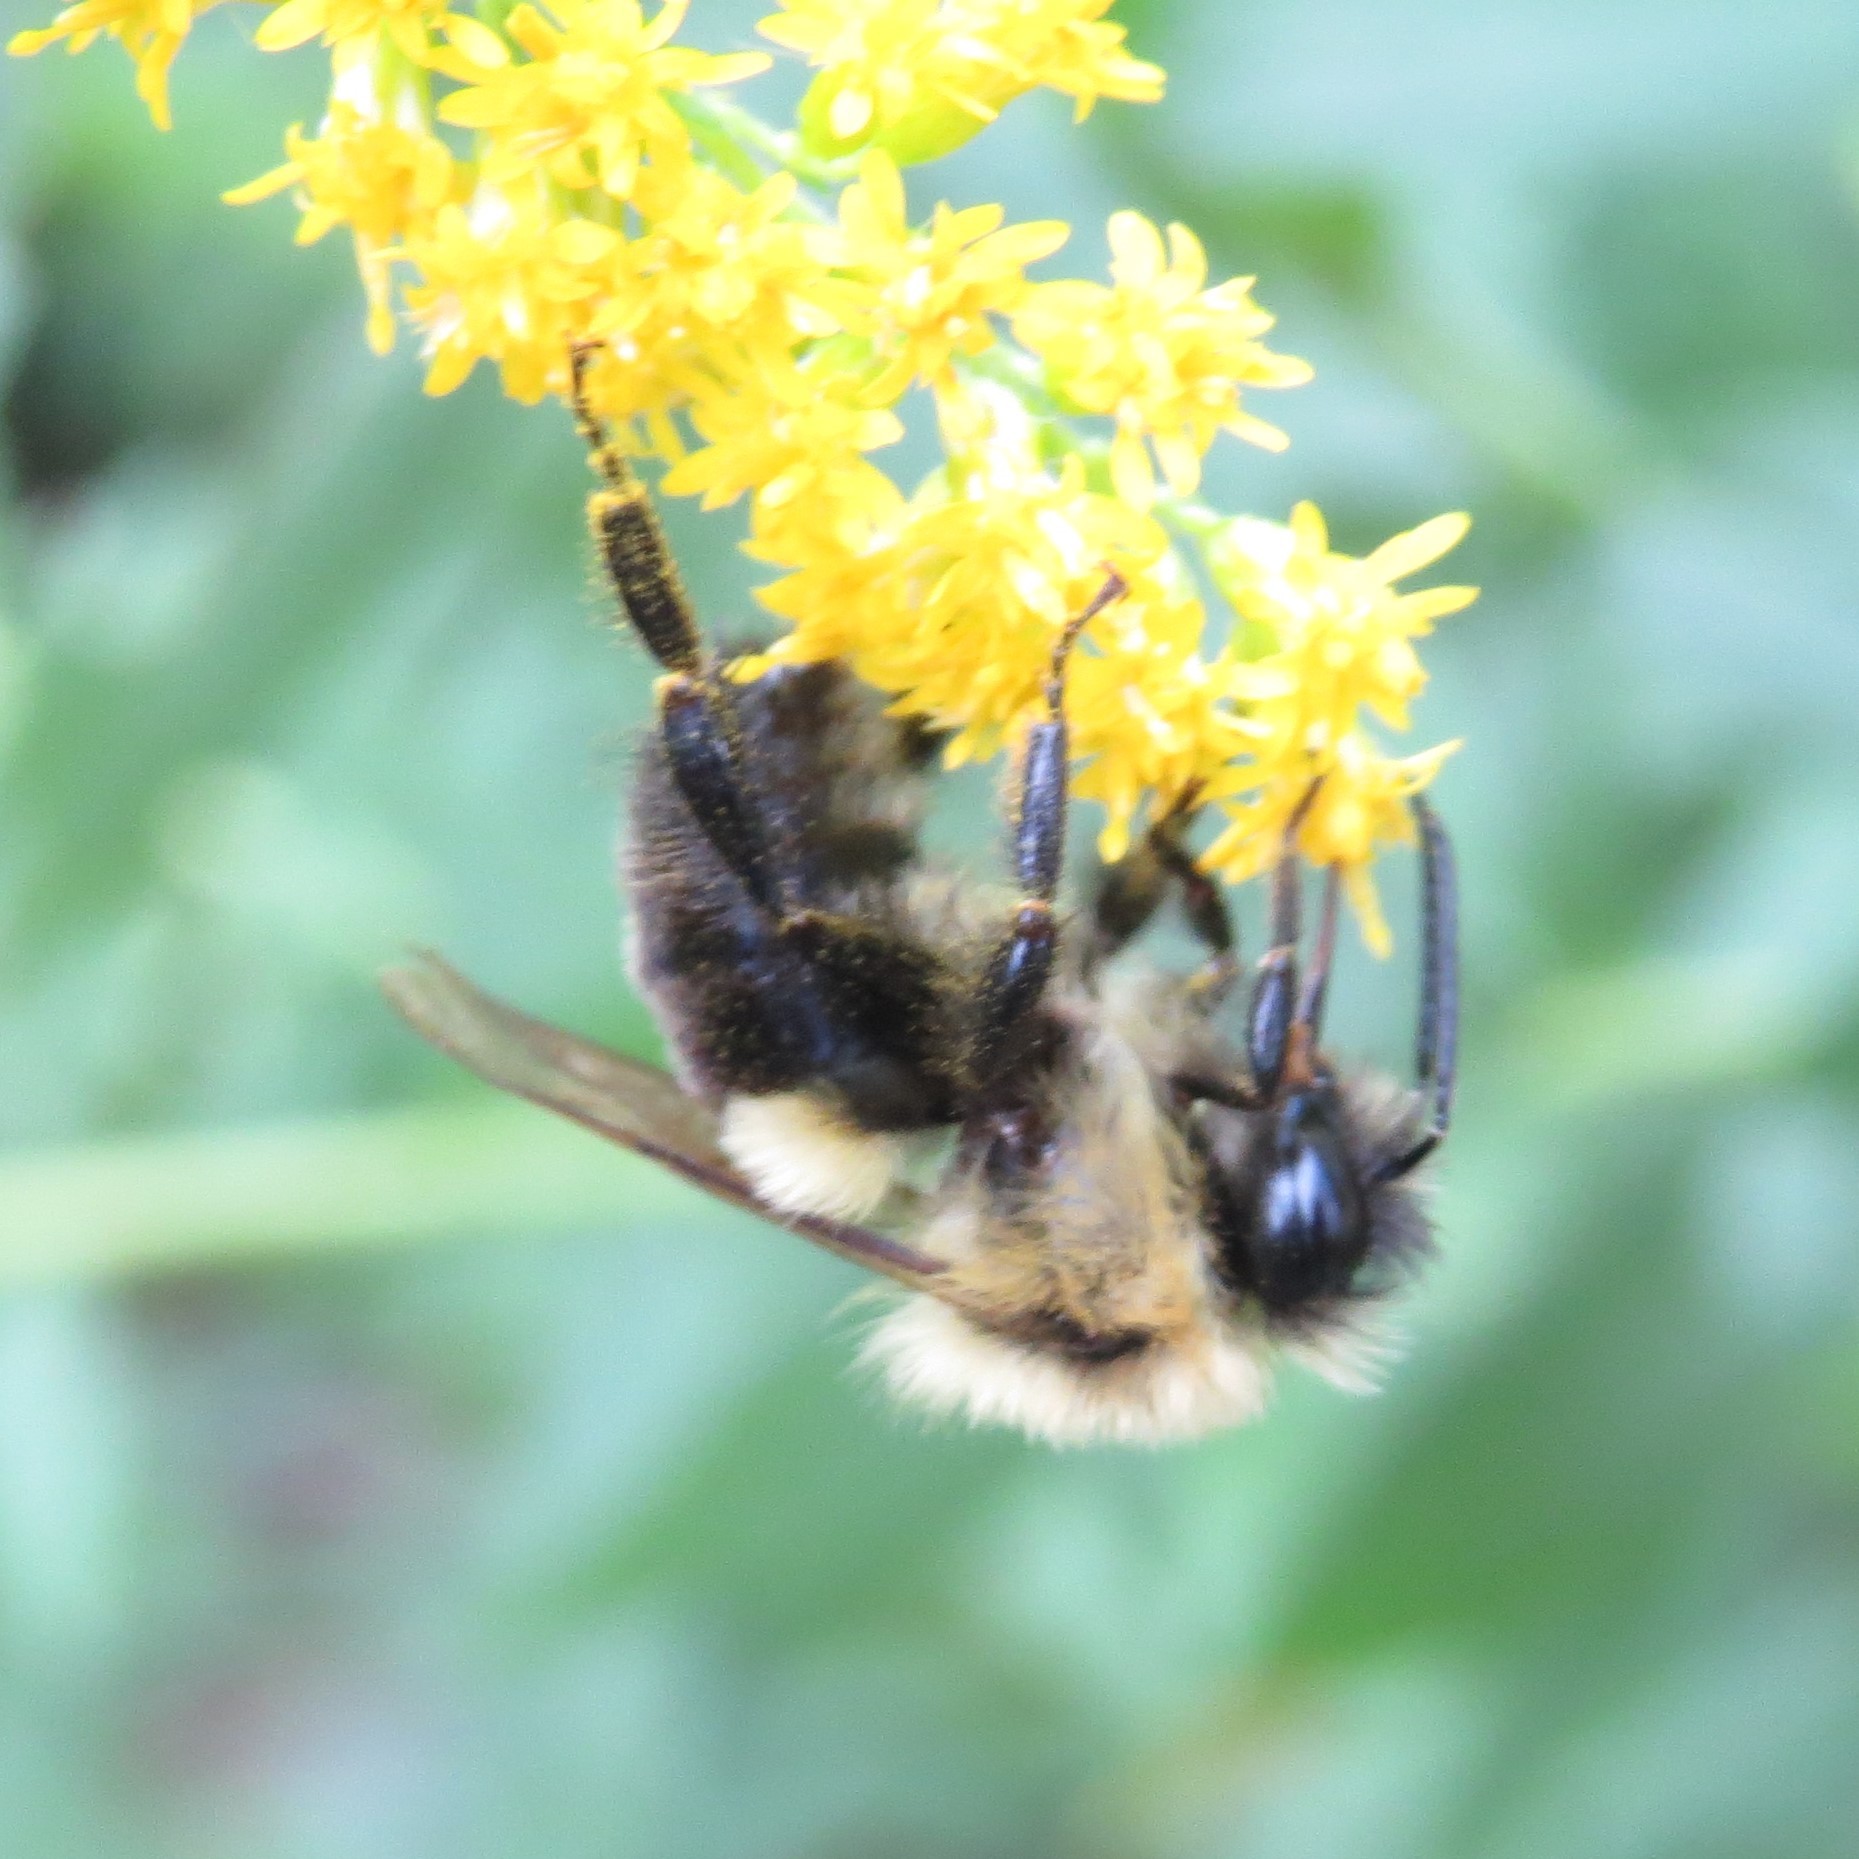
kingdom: Animalia
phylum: Arthropoda
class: Insecta
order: Hymenoptera
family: Apidae
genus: Bombus
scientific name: Bombus impatiens
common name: Common eastern bumble bee
